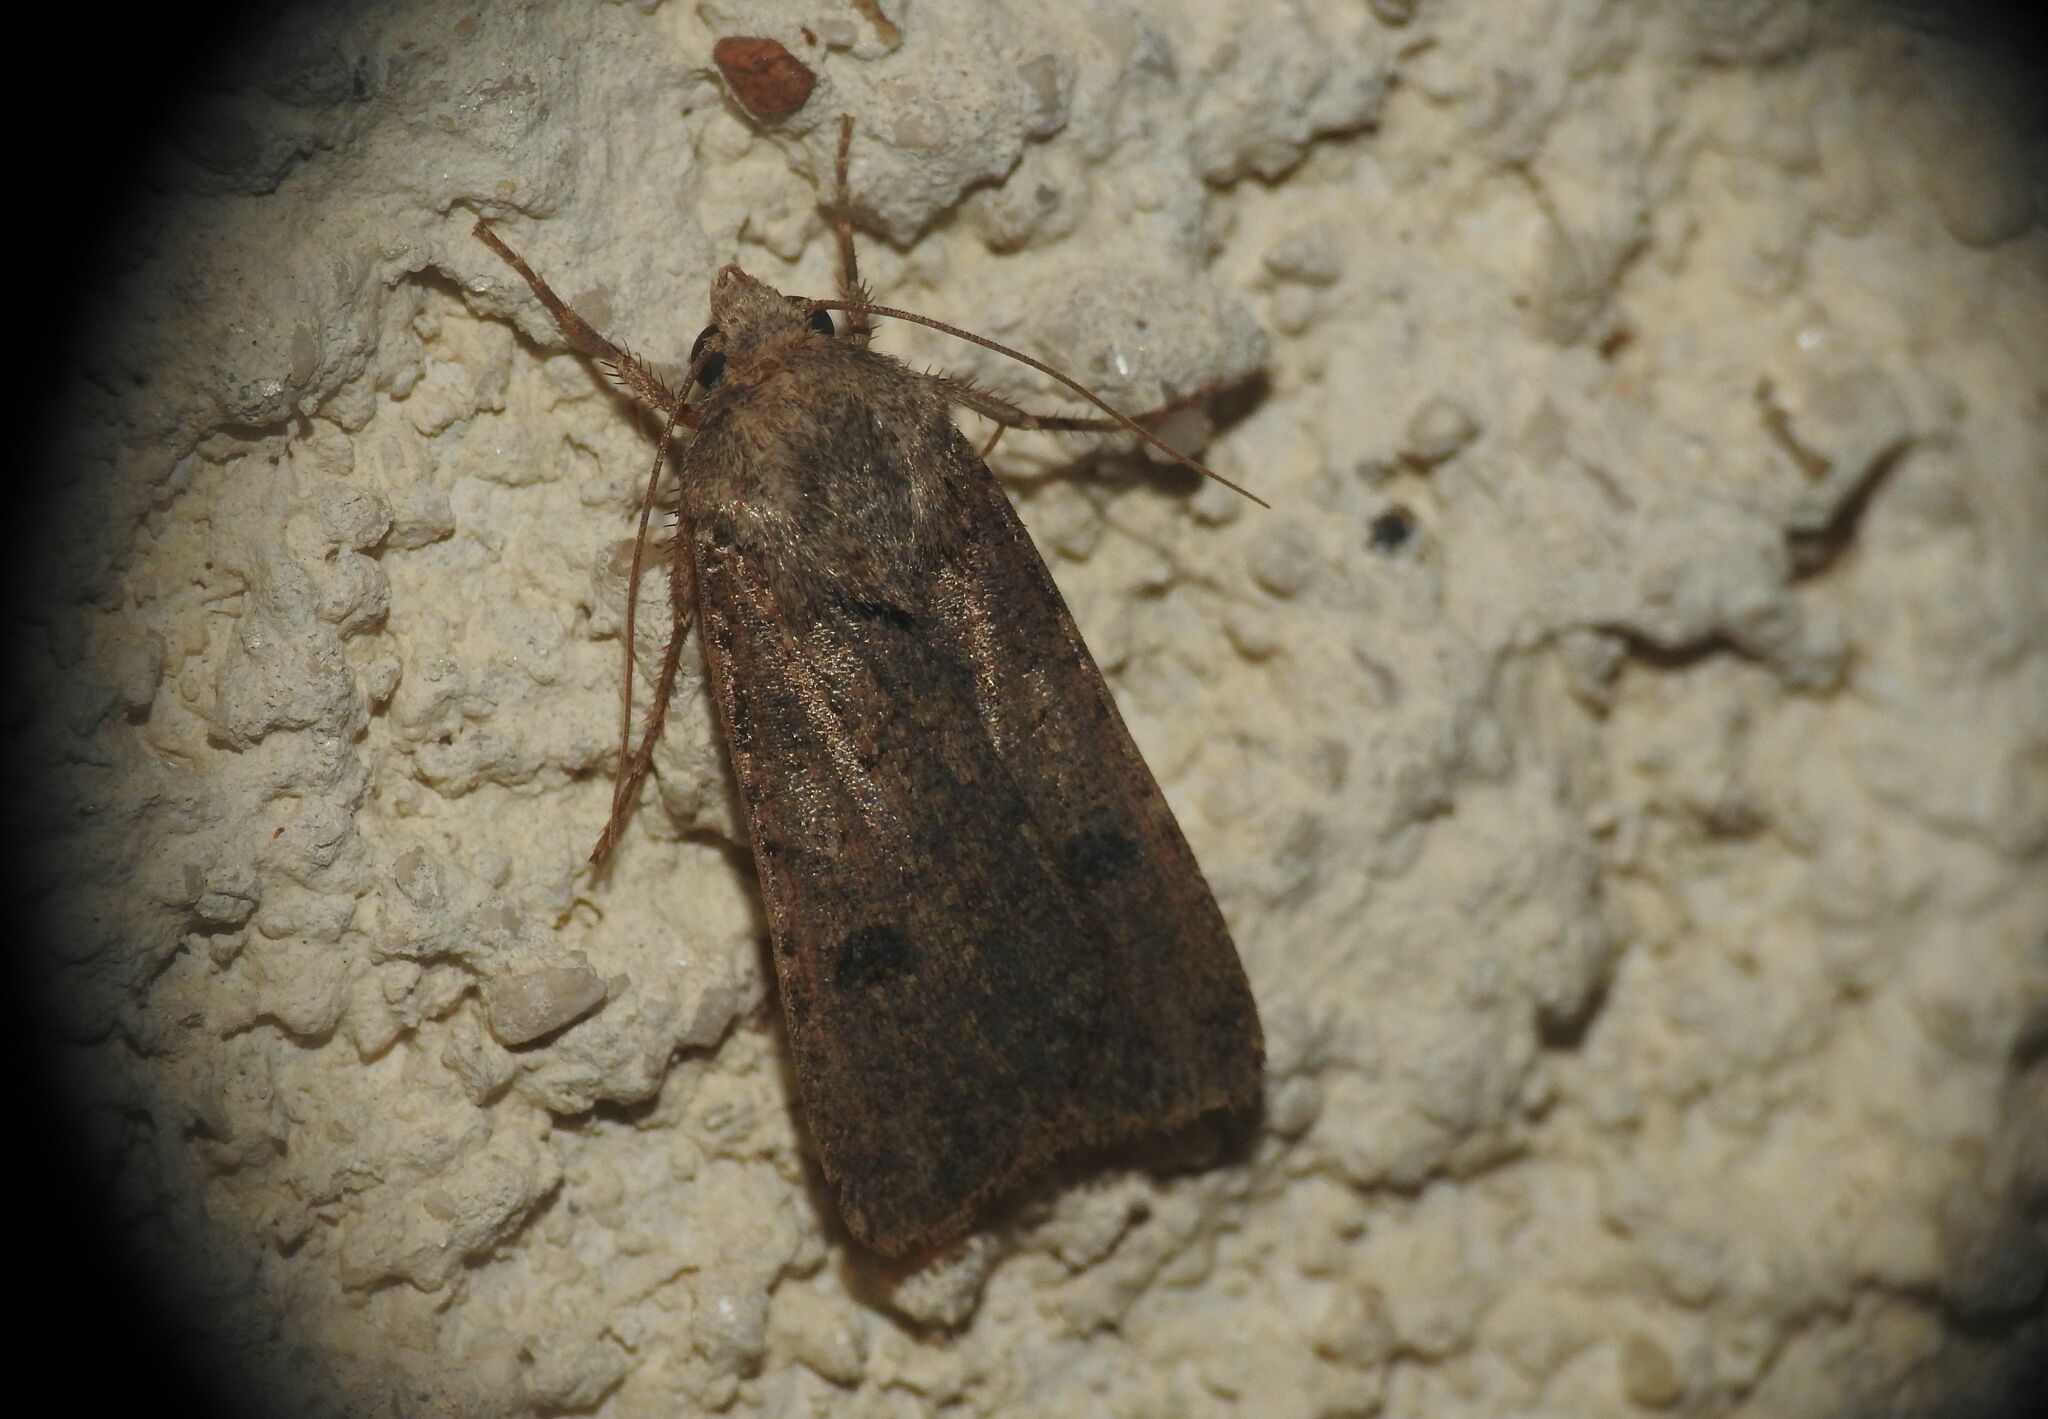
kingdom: Animalia
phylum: Arthropoda
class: Insecta
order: Lepidoptera
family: Noctuidae
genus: Agrotis
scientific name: Agrotis trux
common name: Crescent dart
